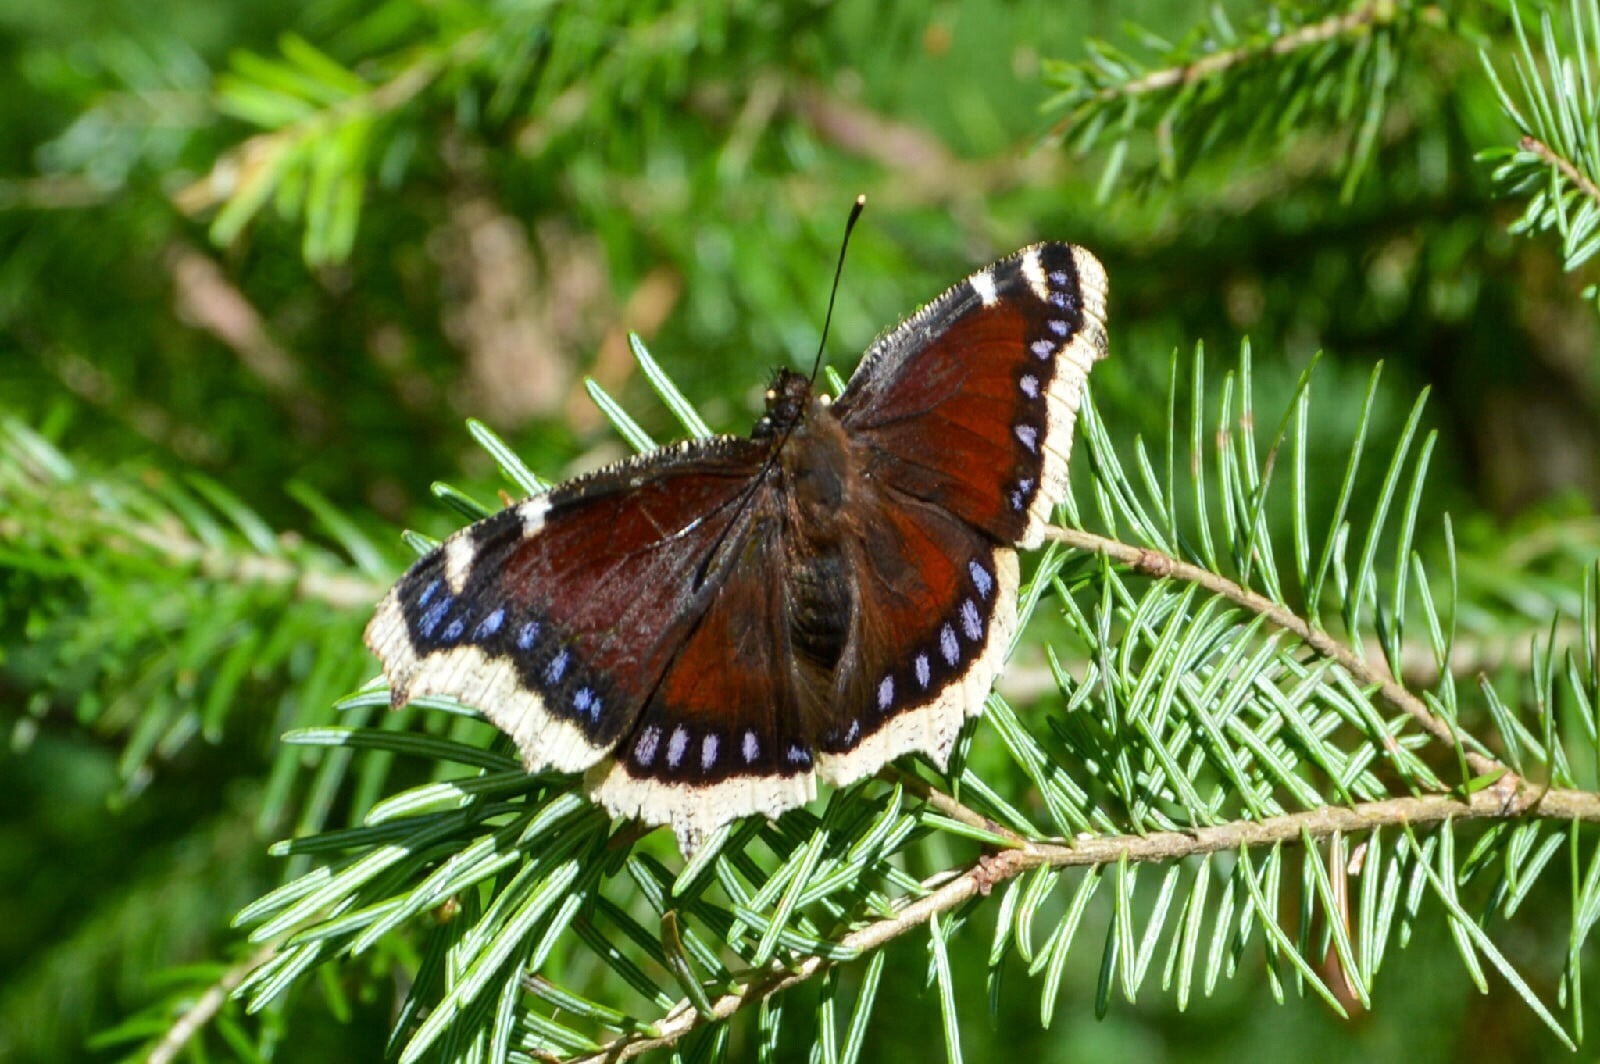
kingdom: Animalia
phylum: Arthropoda
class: Insecta
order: Lepidoptera
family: Nymphalidae
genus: Nymphalis
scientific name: Nymphalis antiopa
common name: Camberwell beauty
